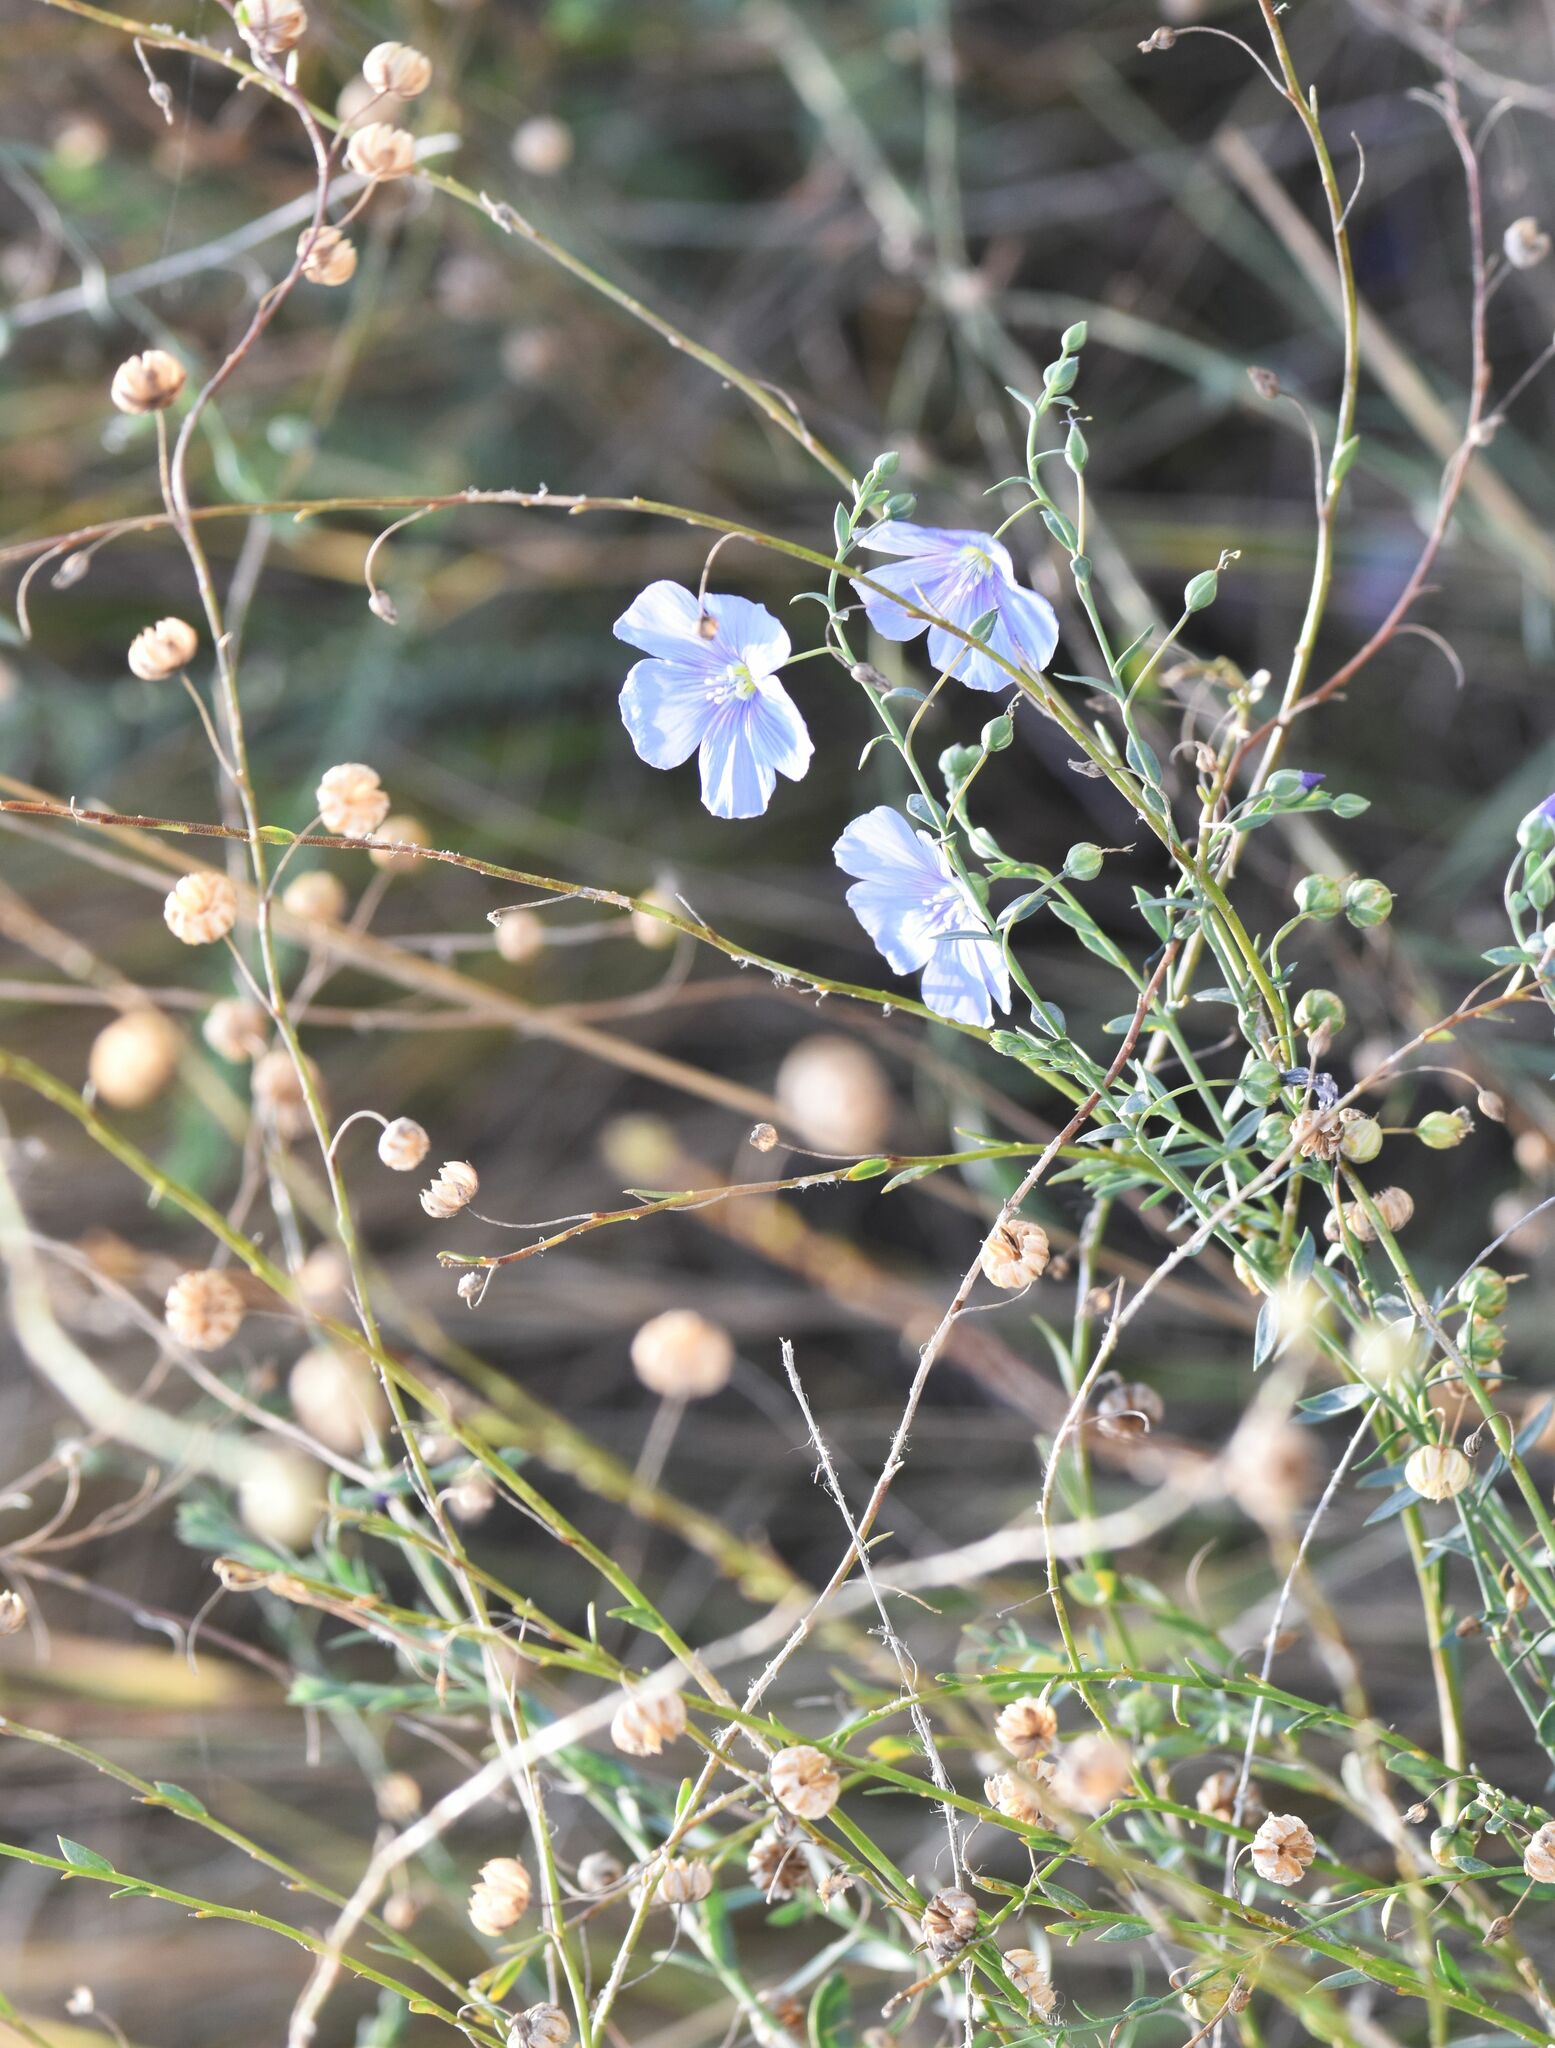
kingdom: Plantae
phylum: Tracheophyta
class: Magnoliopsida
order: Malpighiales
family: Linaceae
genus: Linum
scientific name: Linum lewisii
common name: Prairie flax
